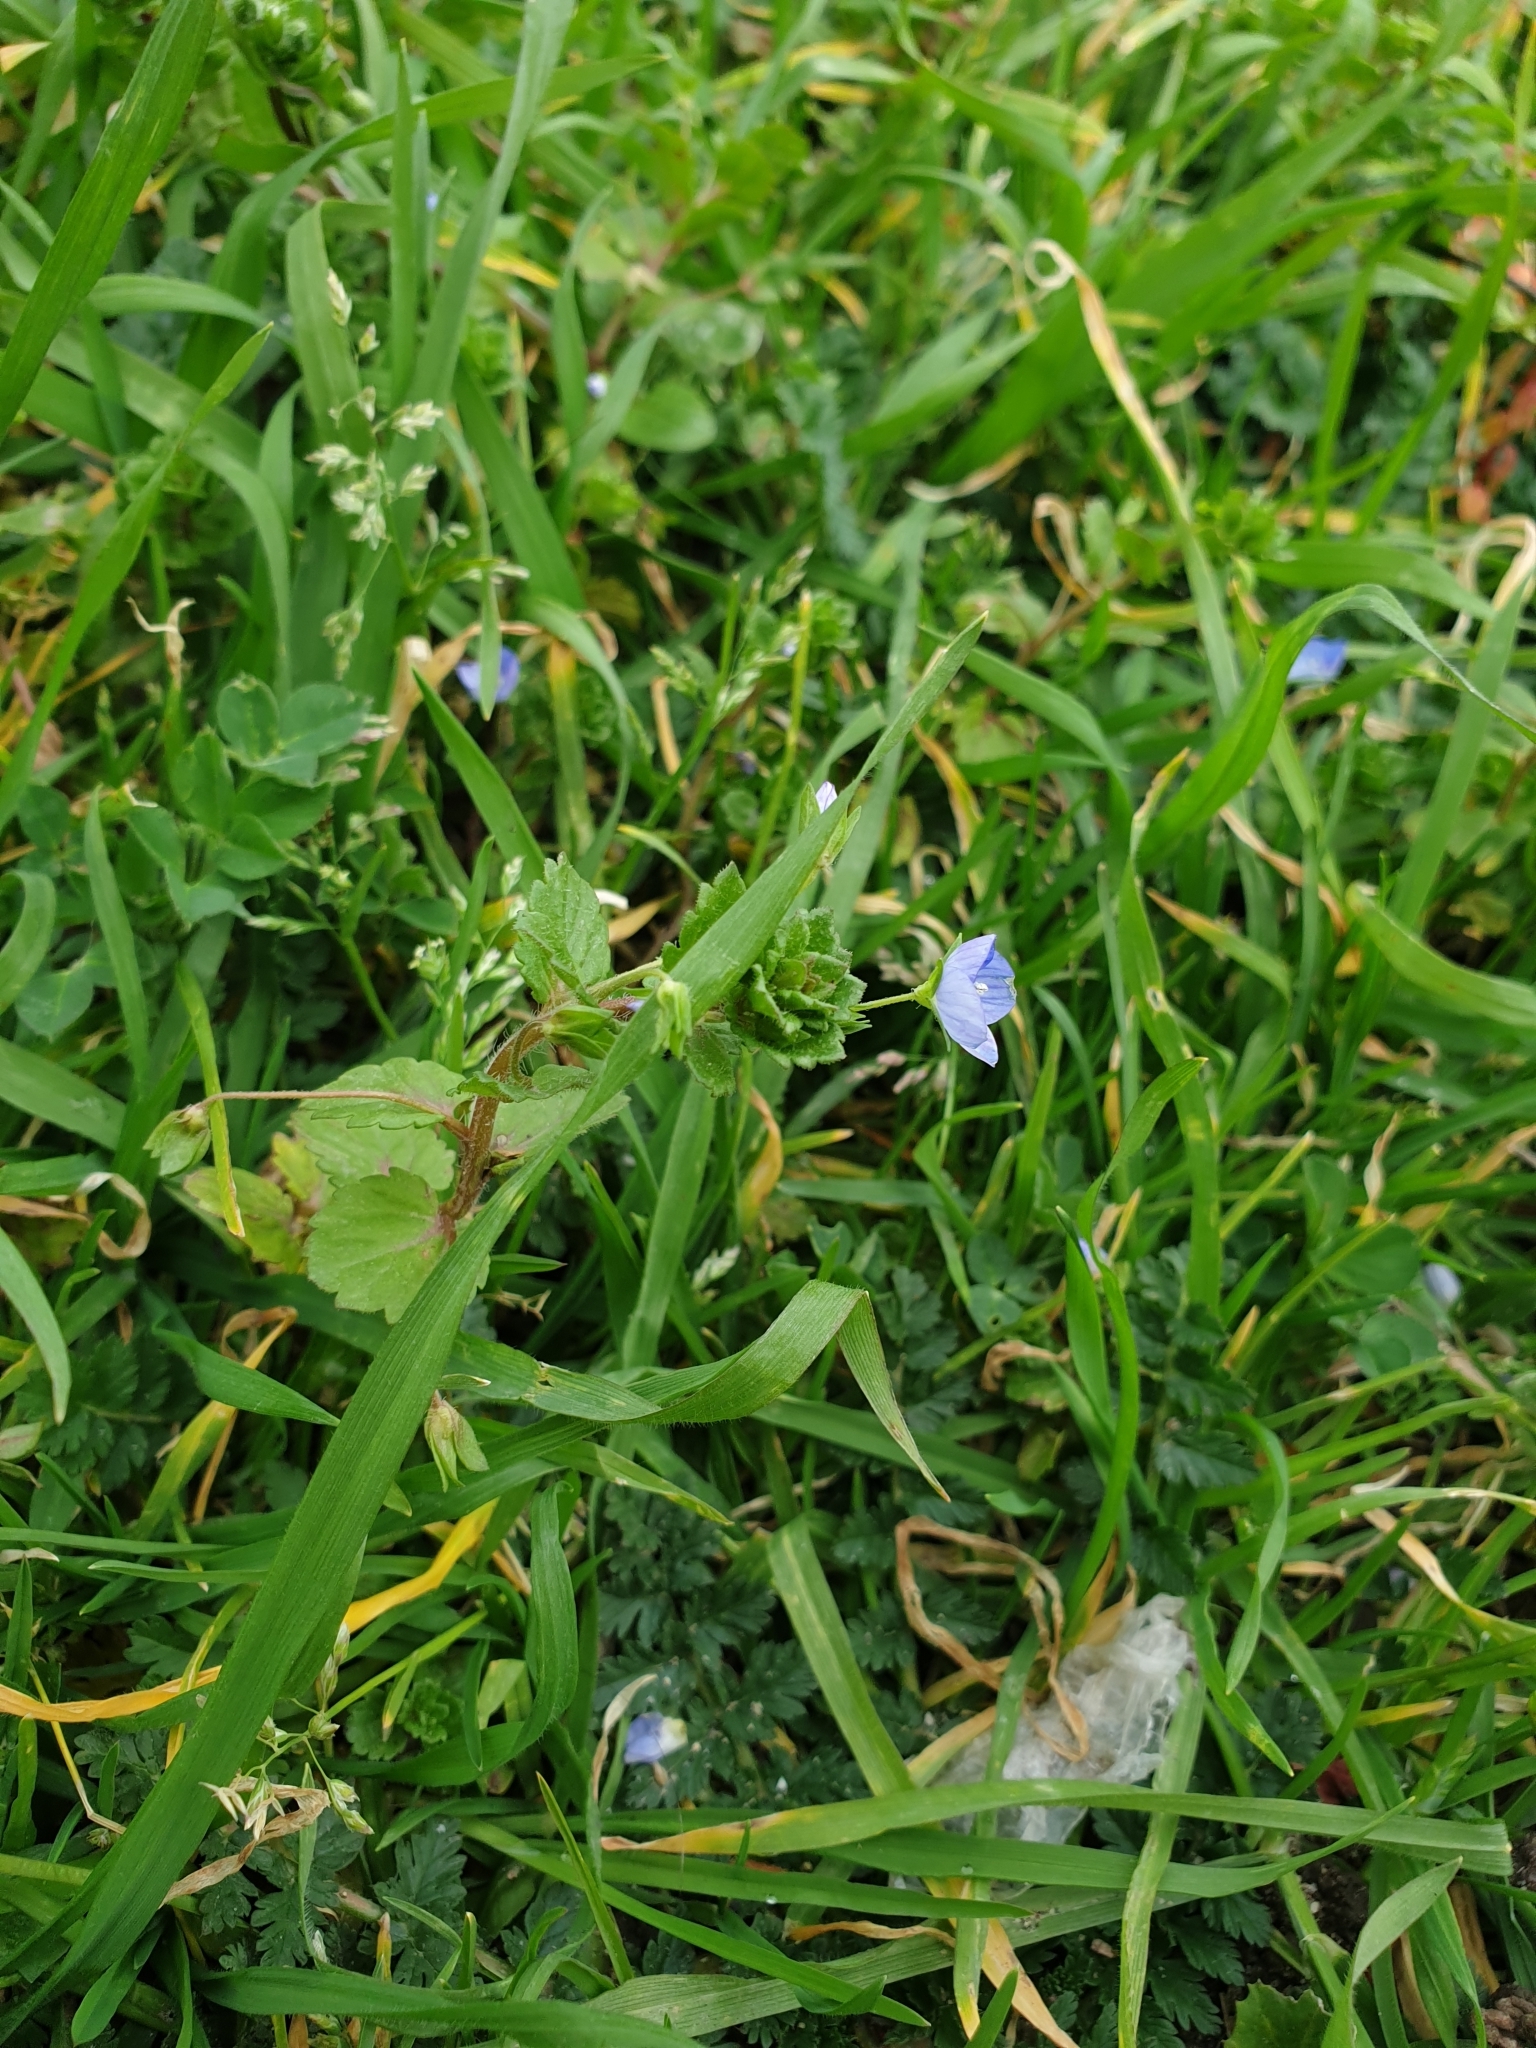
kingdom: Plantae
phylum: Tracheophyta
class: Magnoliopsida
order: Lamiales
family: Plantaginaceae
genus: Veronica
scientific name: Veronica persica
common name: Common field-speedwell
